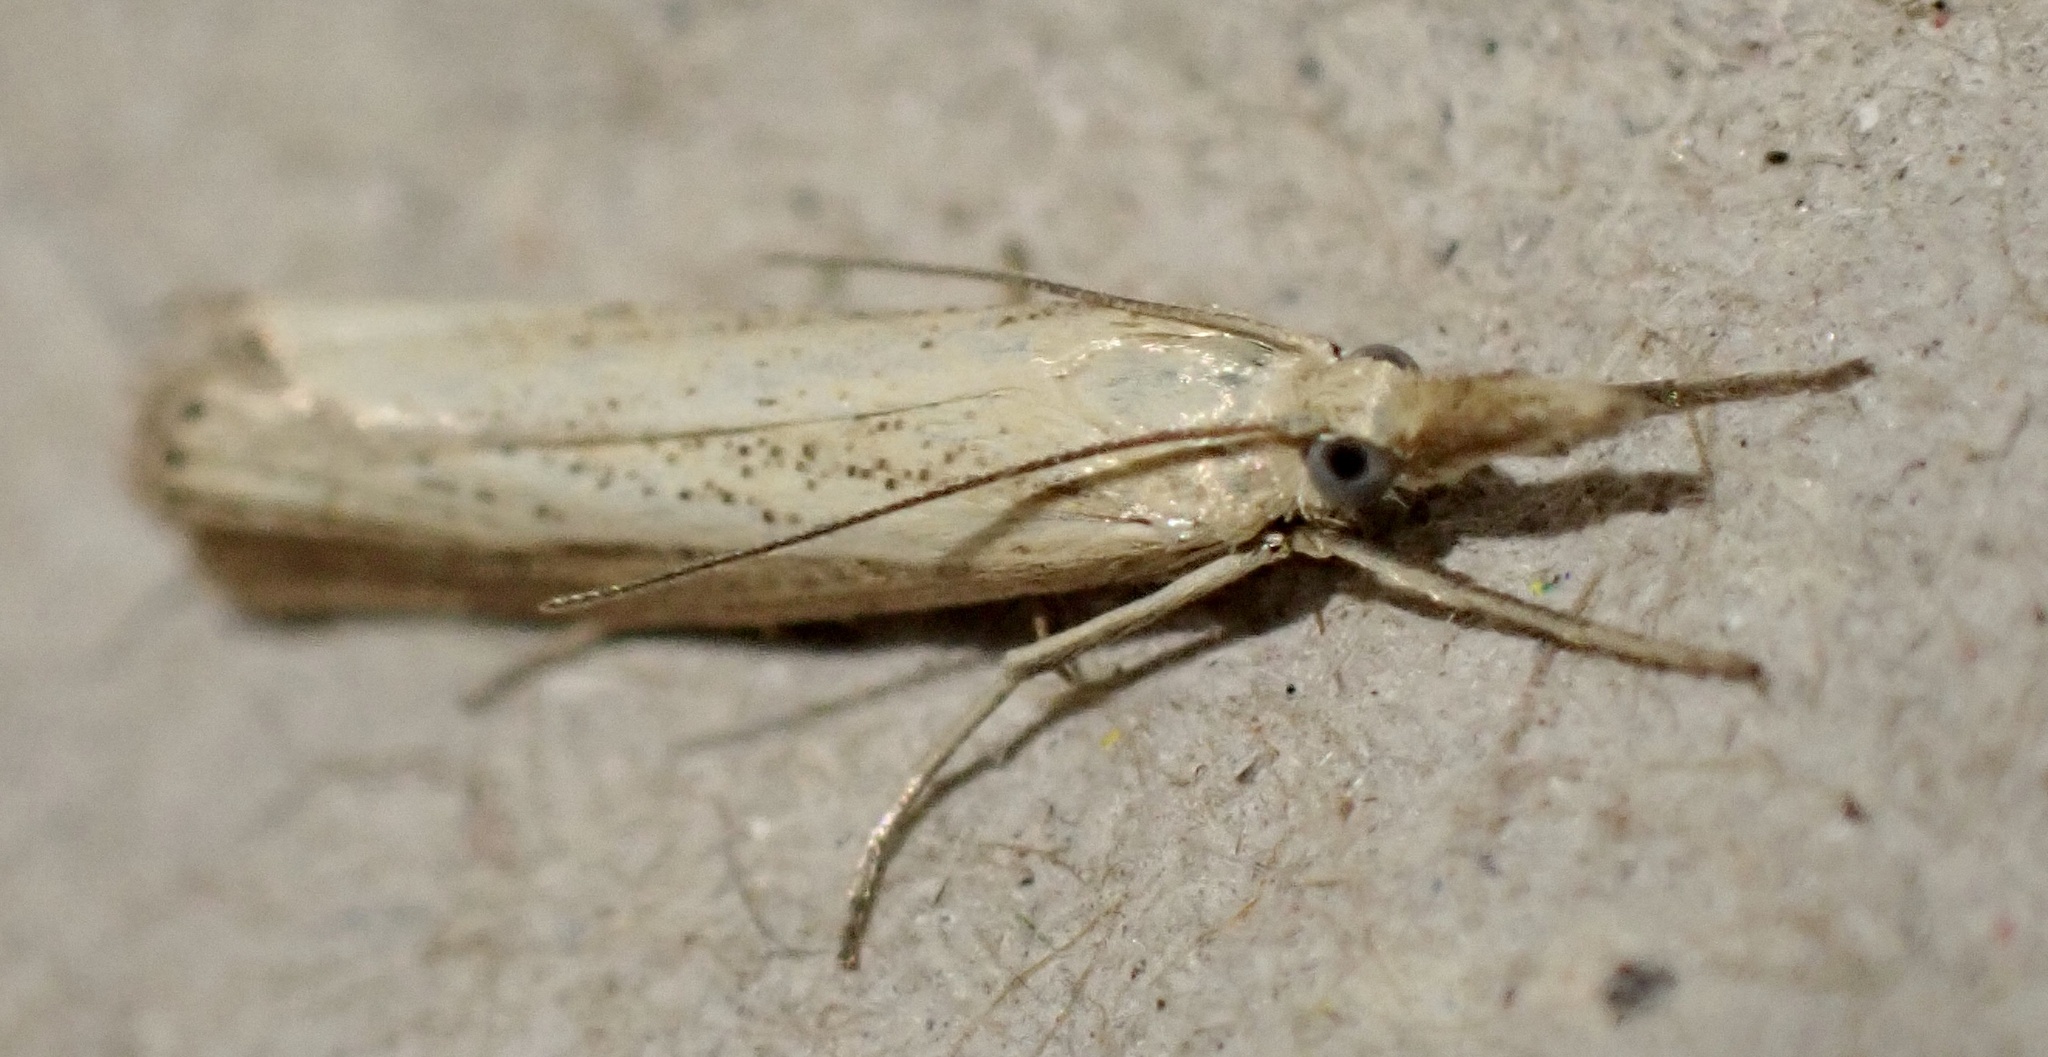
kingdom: Animalia
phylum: Arthropoda
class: Insecta
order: Lepidoptera
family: Crambidae
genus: Agriphila
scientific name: Agriphila straminella
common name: Straw grass-veneer
